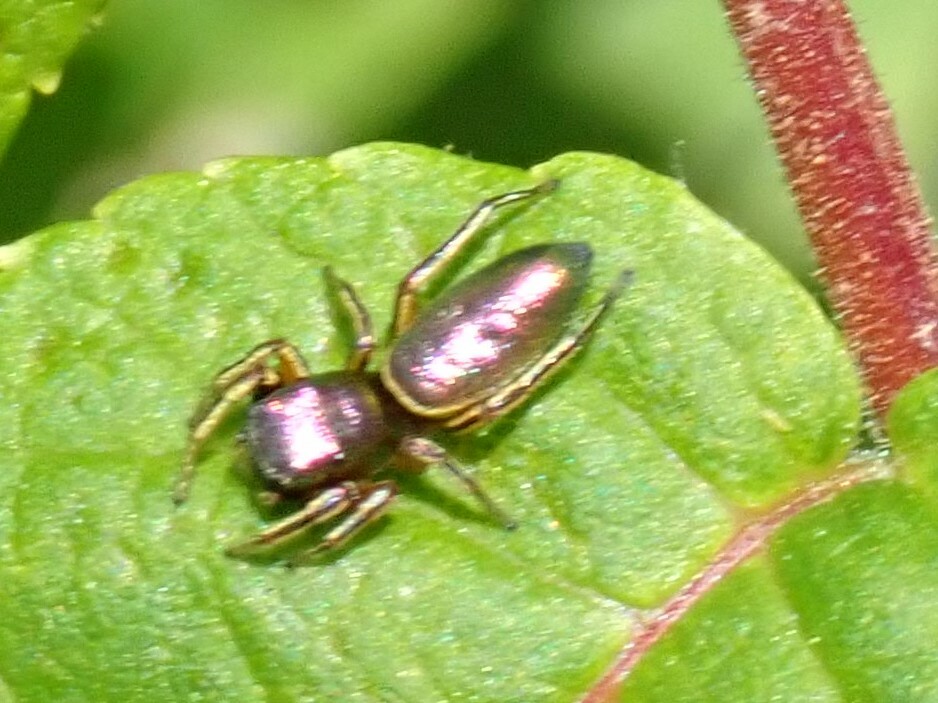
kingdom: Animalia
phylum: Arthropoda
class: Arachnida
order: Araneae
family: Salticidae
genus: Tutelina
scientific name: Tutelina elegans
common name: Thin-spined jumping spider
